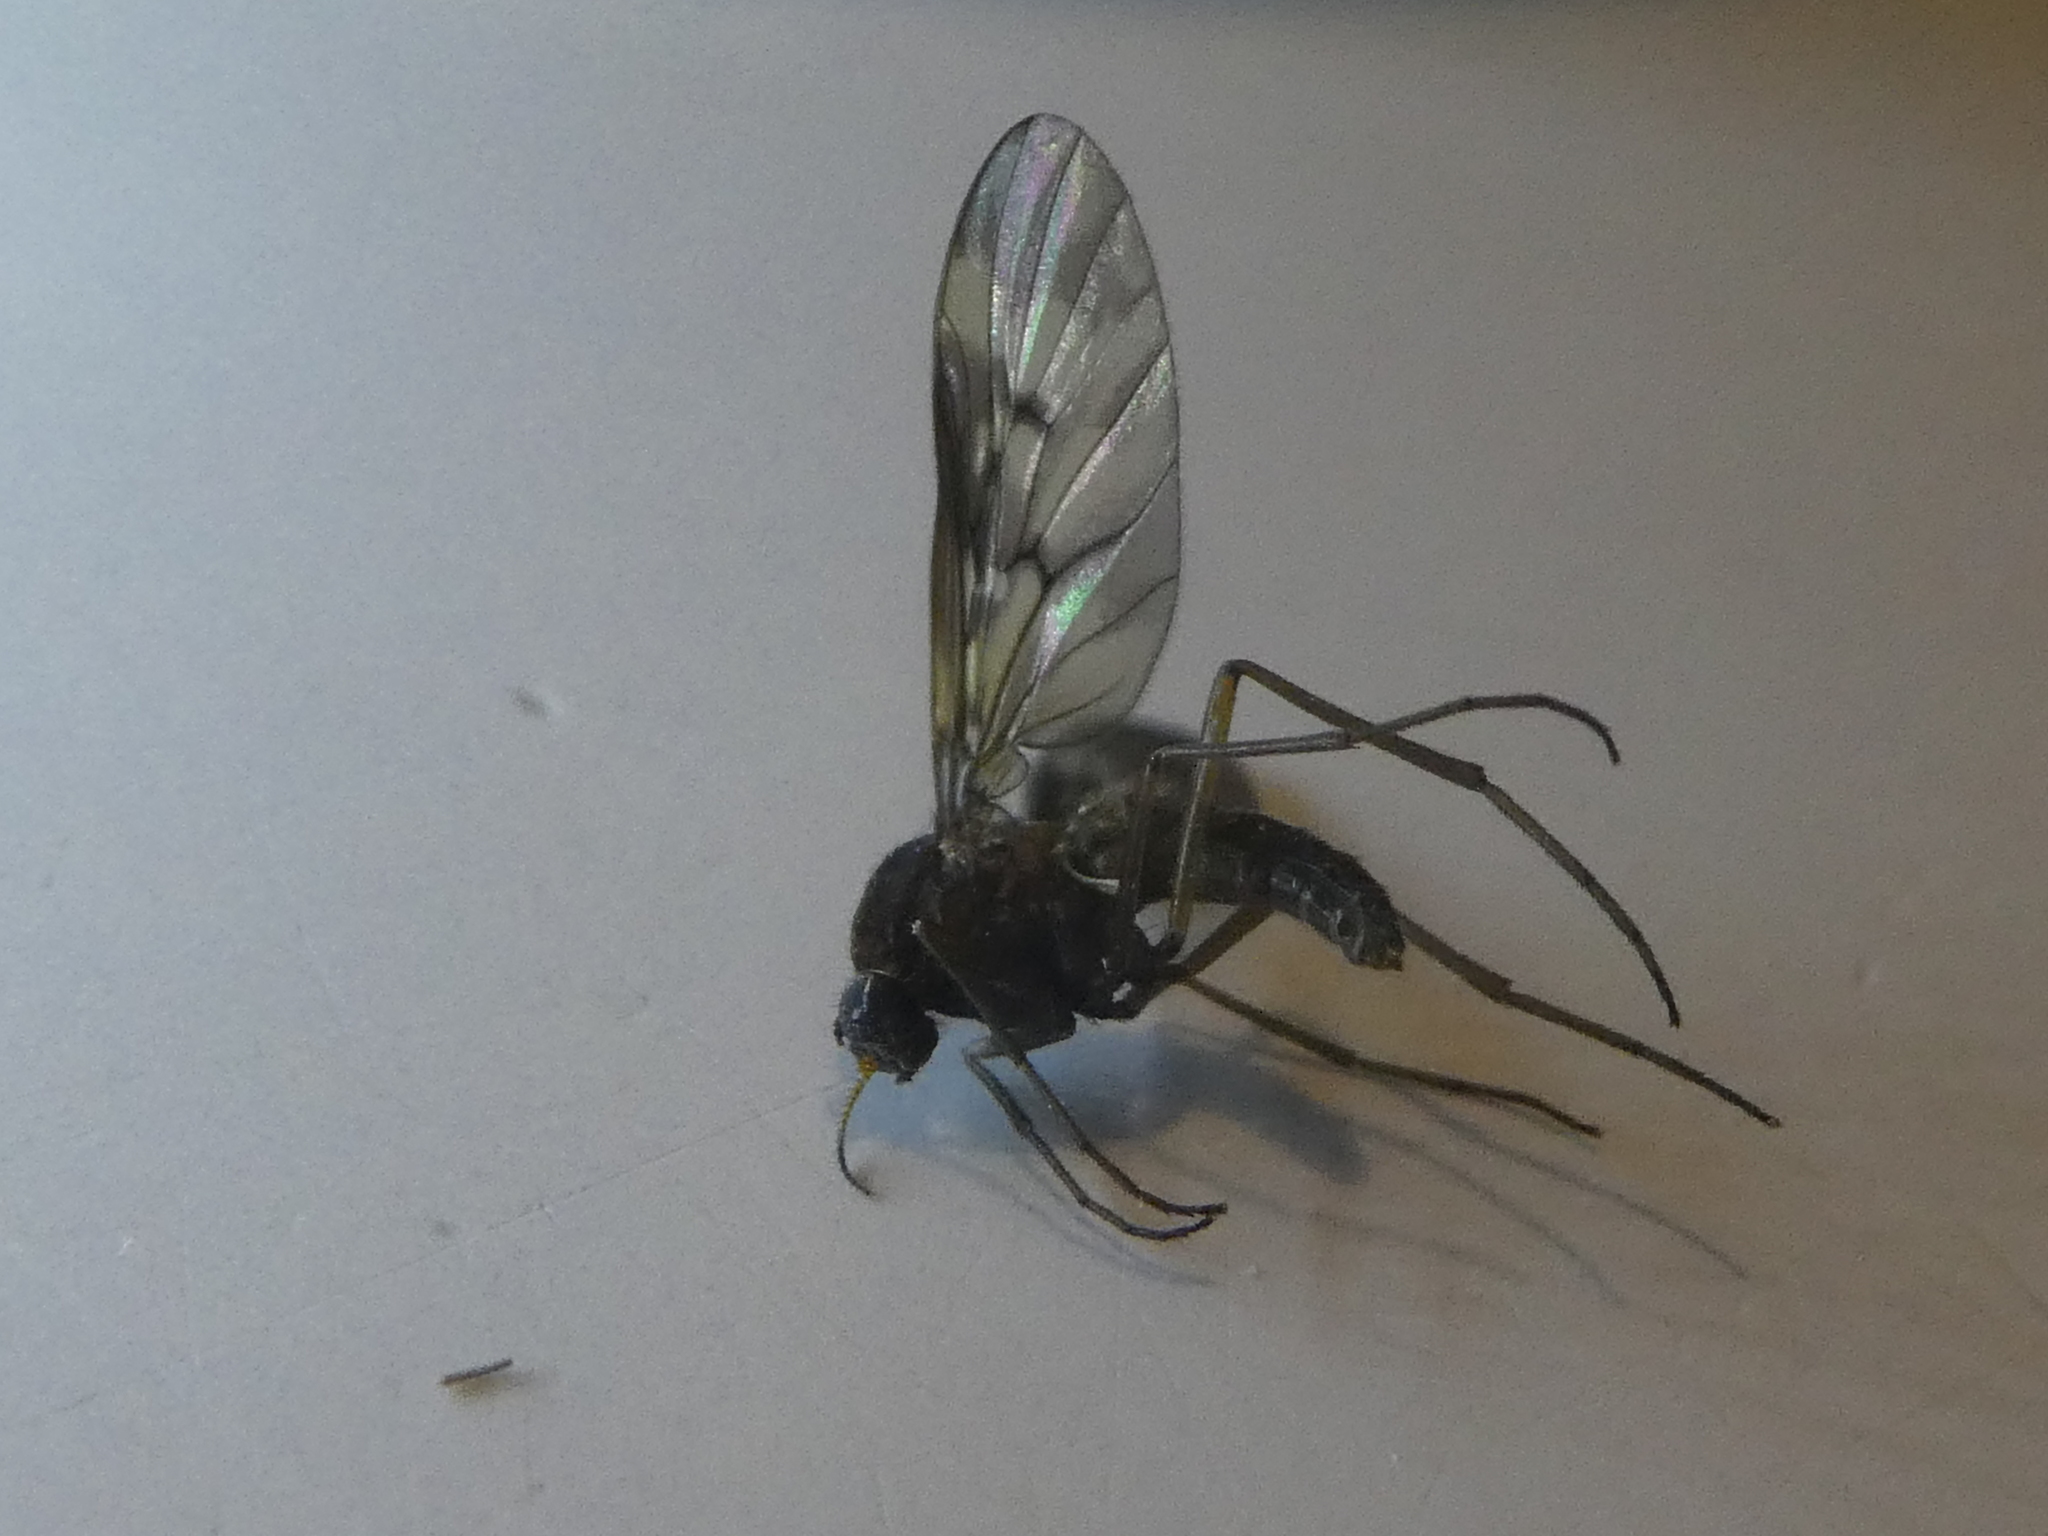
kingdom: Animalia
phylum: Arthropoda
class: Insecta
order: Diptera
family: Anisopodidae
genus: Sylvicola
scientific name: Sylvicola neozelandicus
